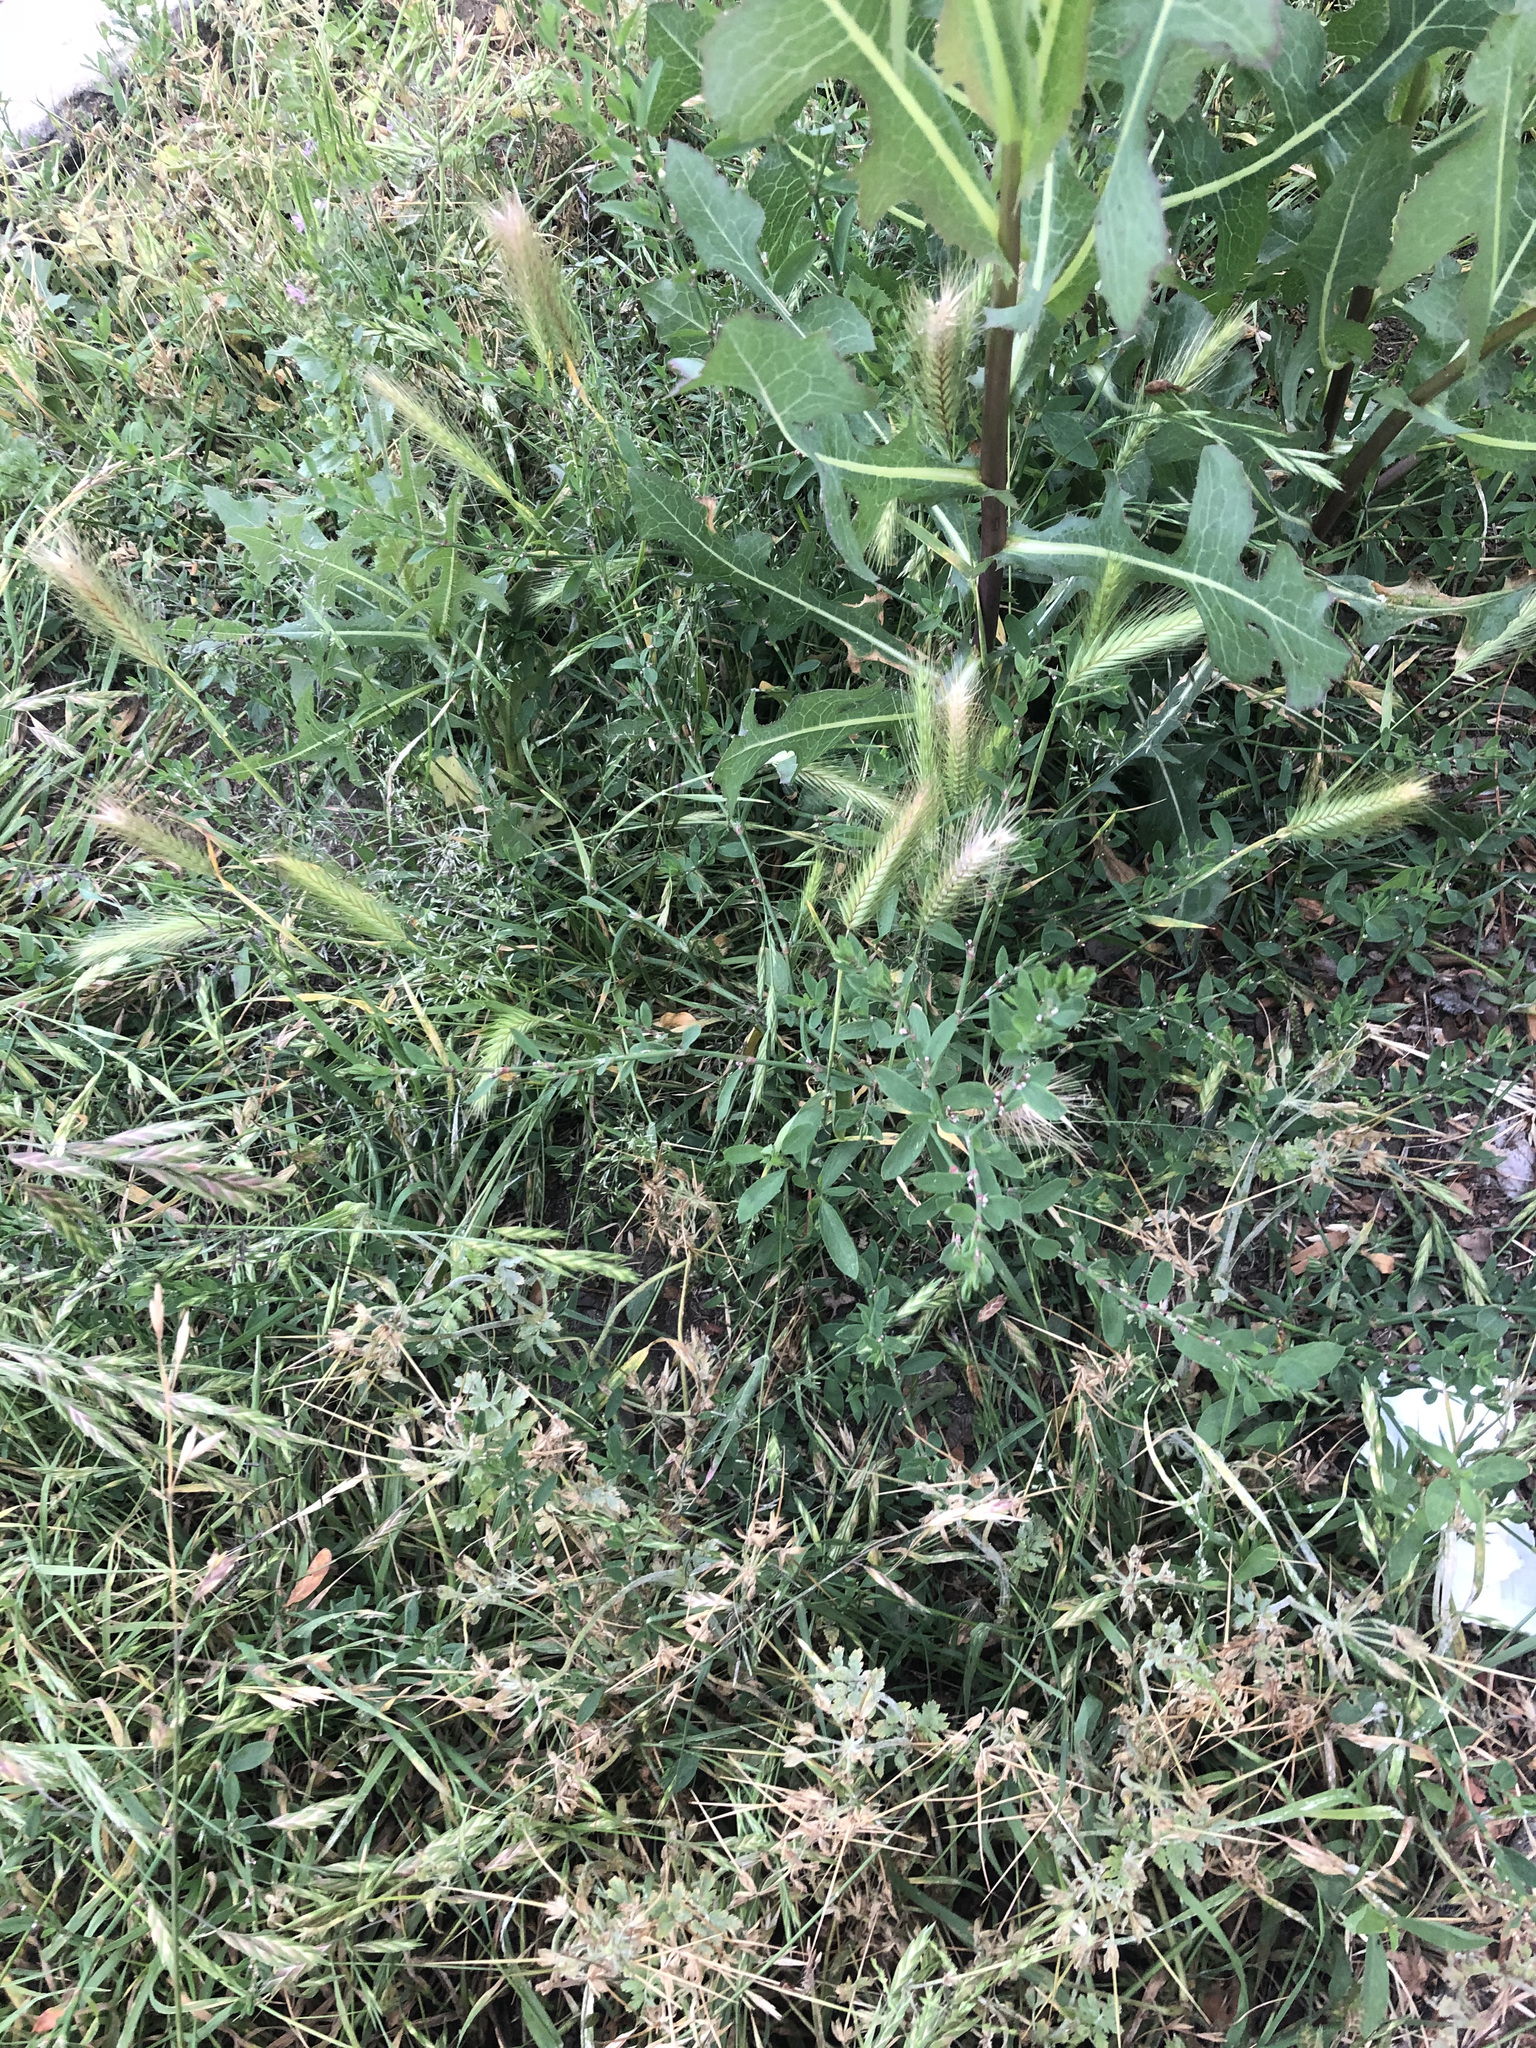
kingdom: Plantae
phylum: Tracheophyta
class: Liliopsida
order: Poales
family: Poaceae
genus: Hordeum
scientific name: Hordeum murinum
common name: Wall barley
